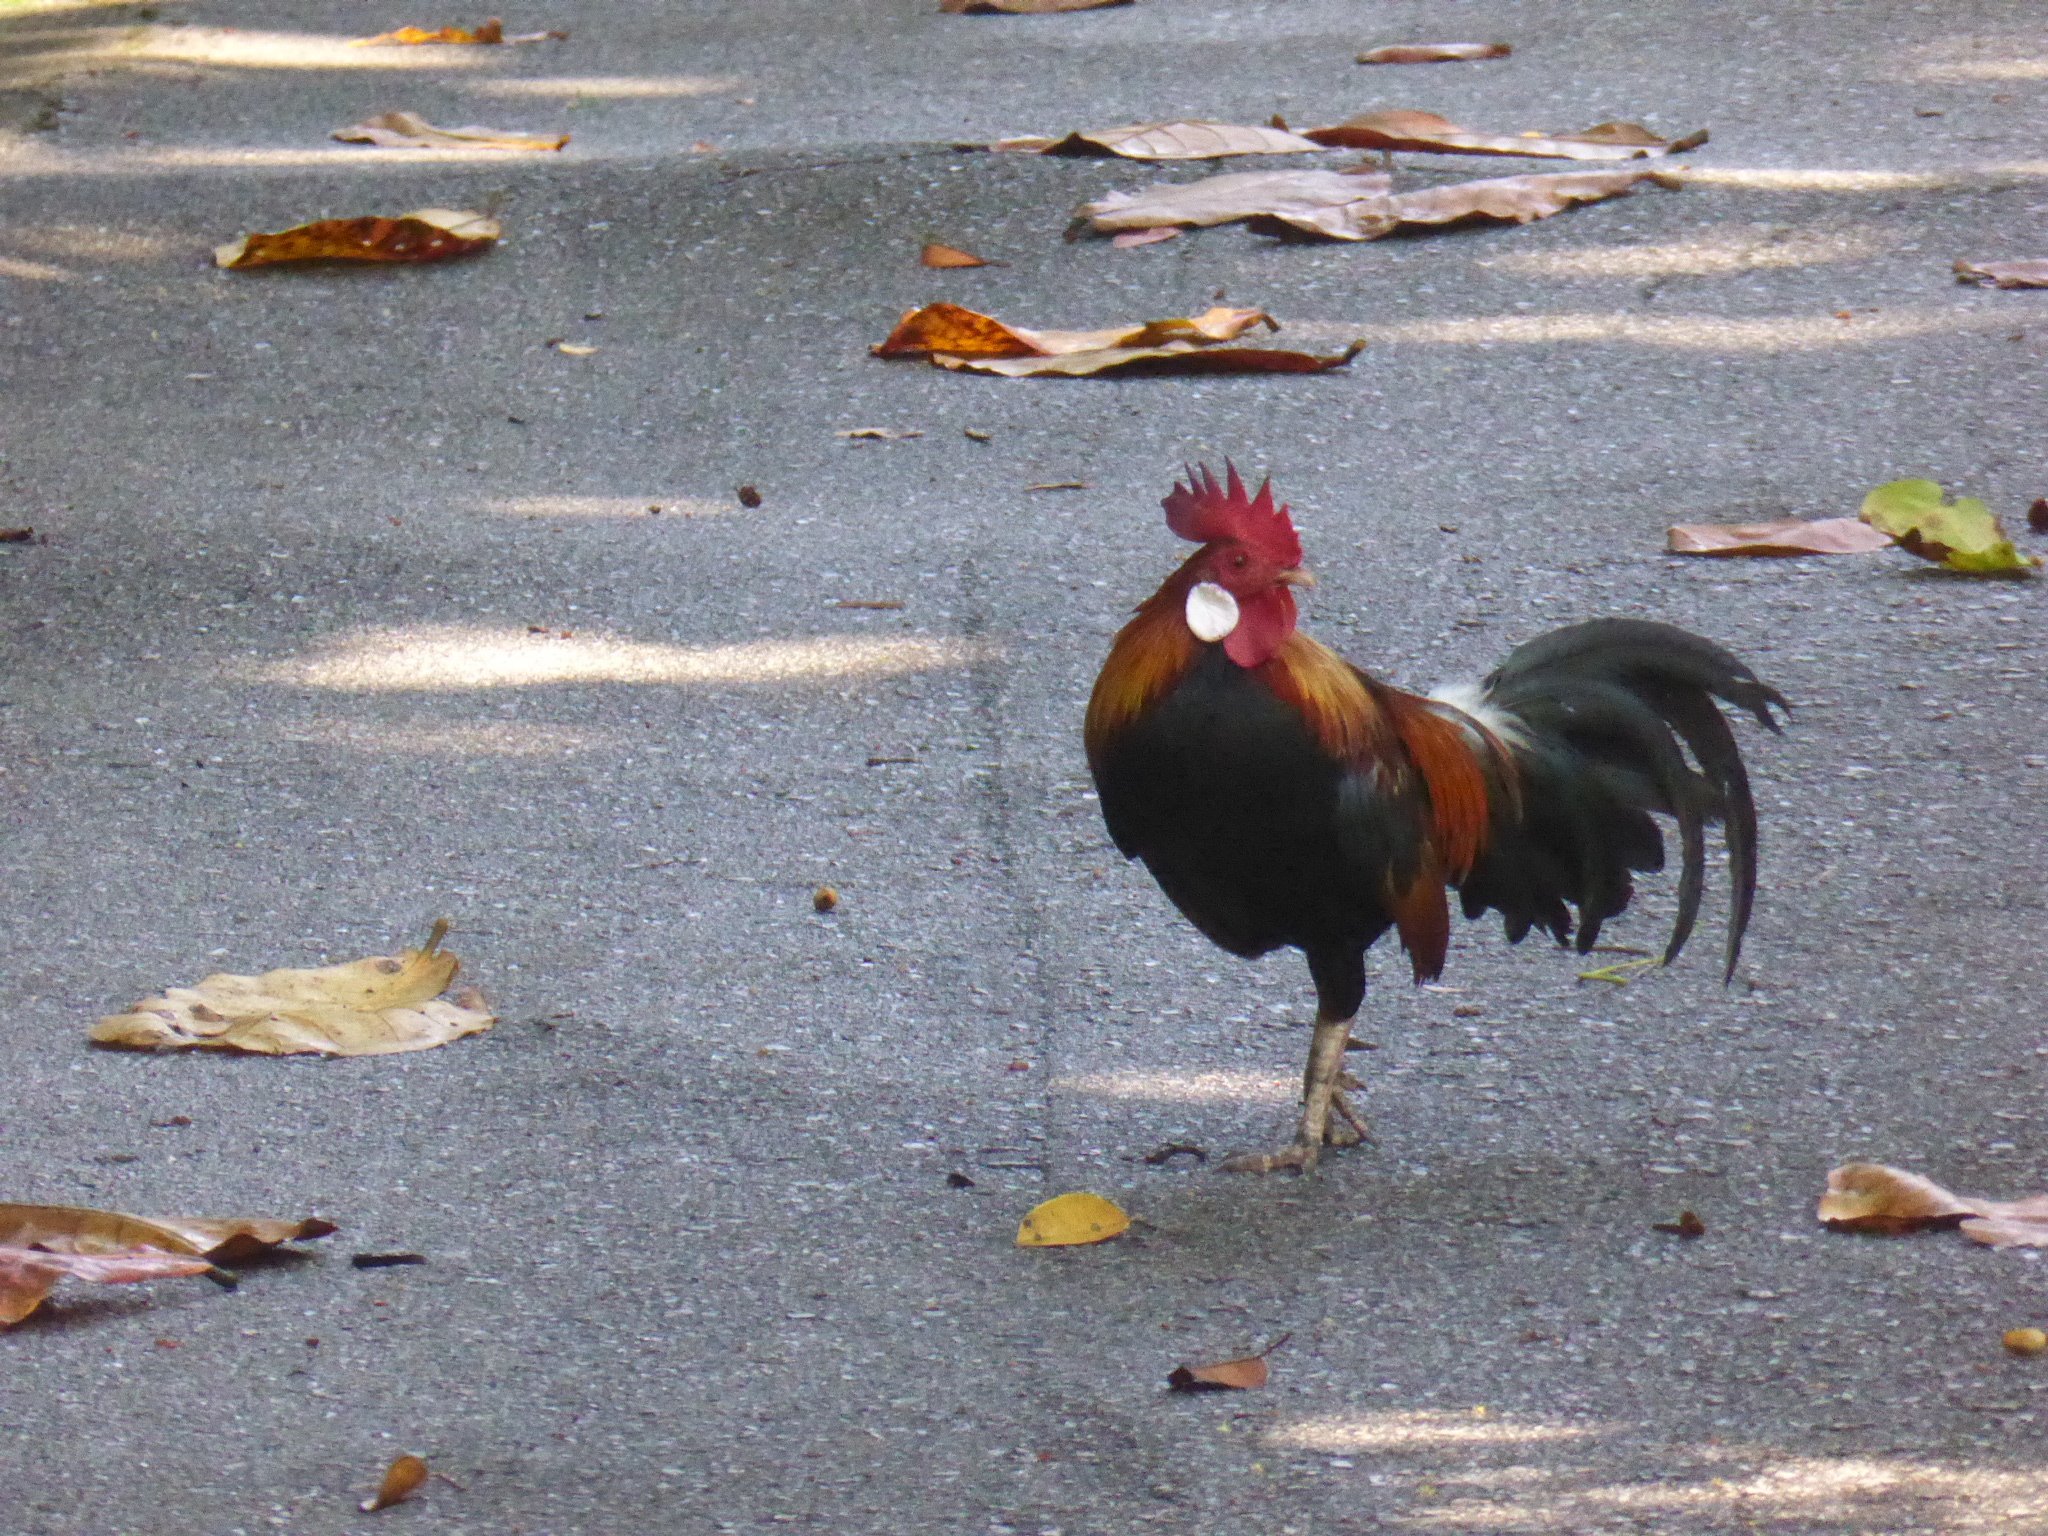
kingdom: Animalia
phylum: Chordata
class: Aves
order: Galliformes
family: Phasianidae
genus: Gallus
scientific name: Gallus gallus
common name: Red junglefowl
